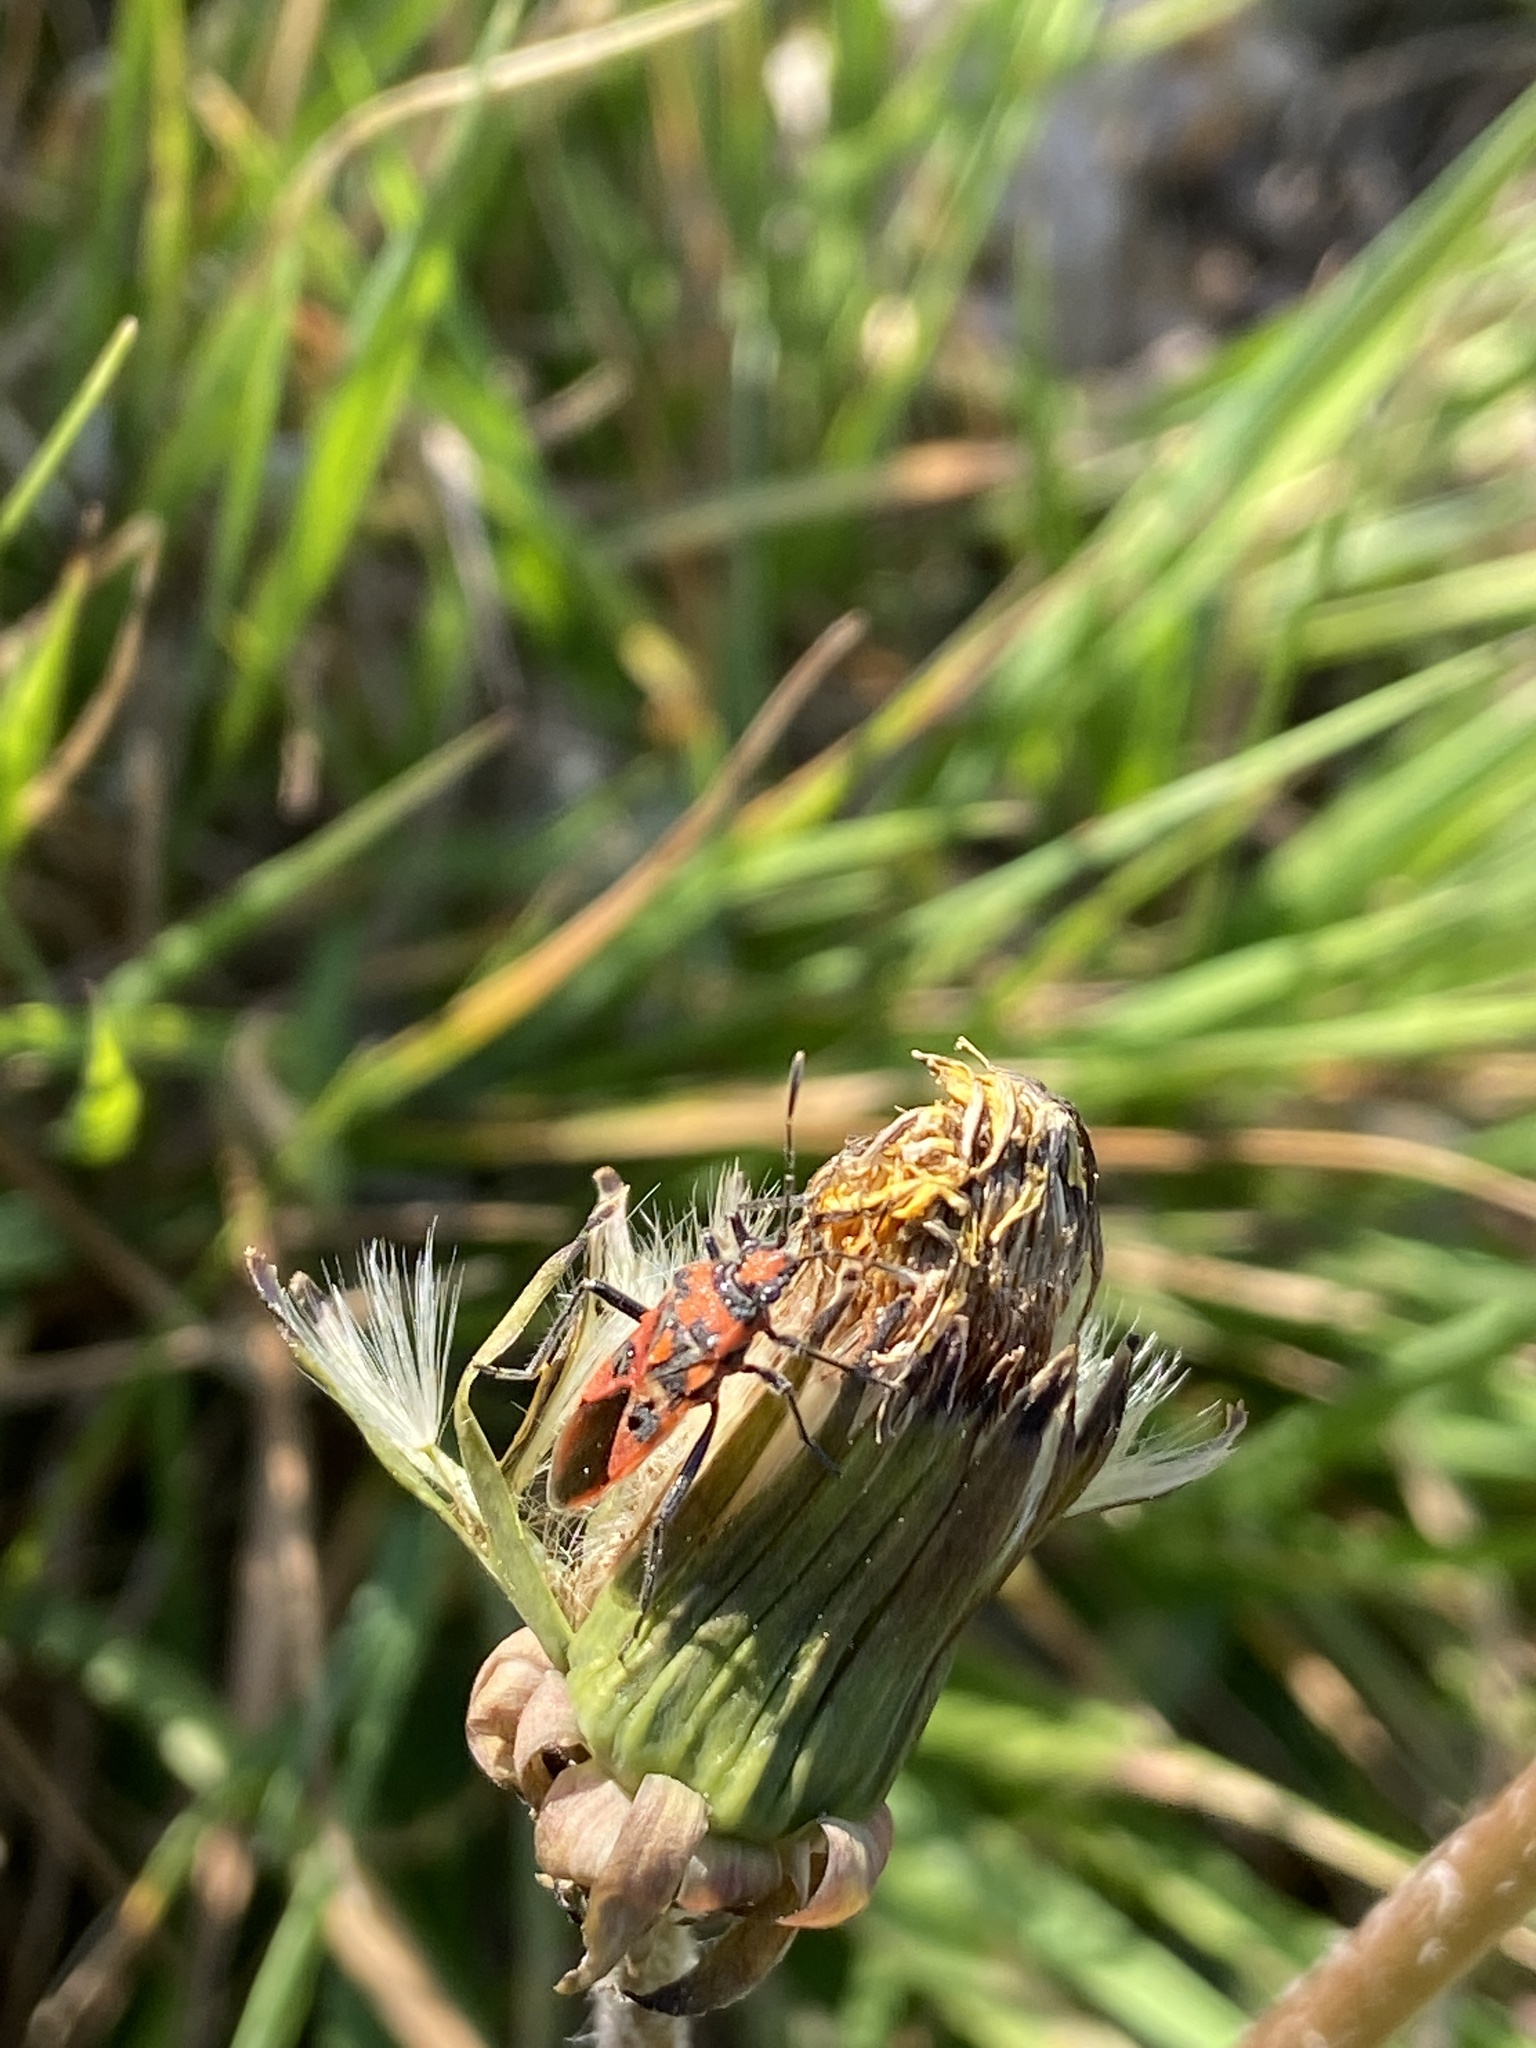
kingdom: Animalia
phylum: Arthropoda
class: Insecta
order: Hemiptera
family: Rhopalidae
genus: Corizus
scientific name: Corizus hyoscyami
